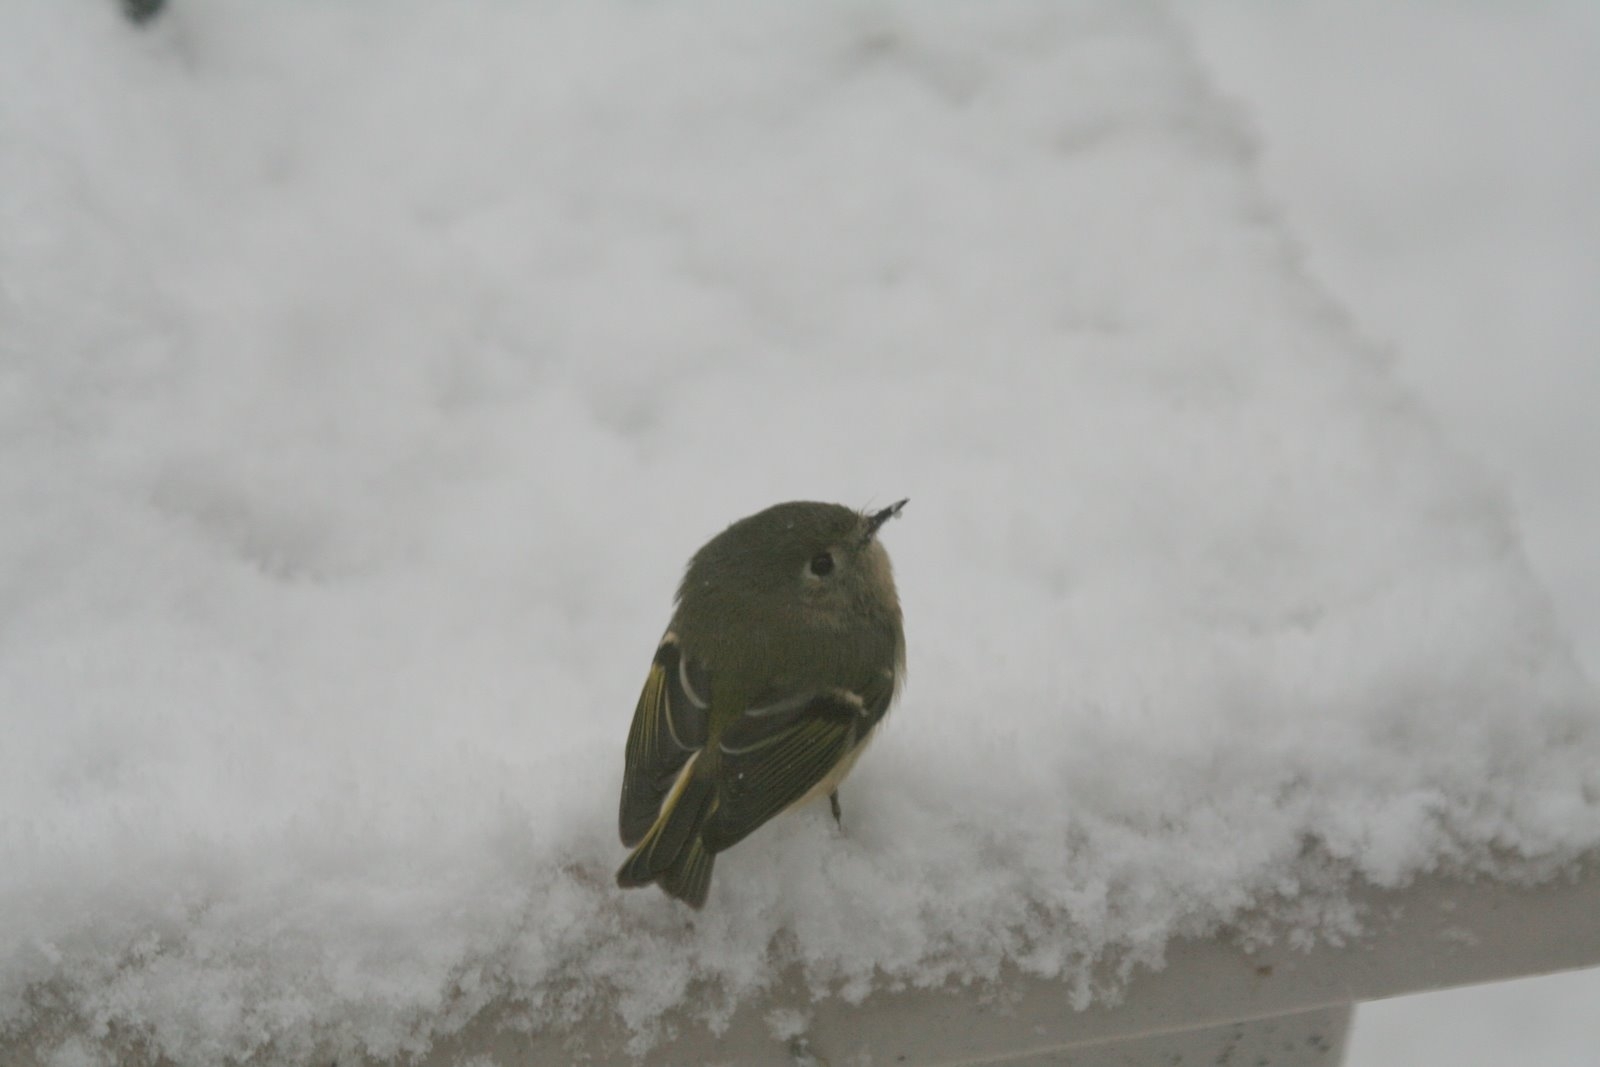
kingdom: Animalia
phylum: Chordata
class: Aves
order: Passeriformes
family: Regulidae
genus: Regulus
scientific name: Regulus calendula
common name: Ruby-crowned kinglet
